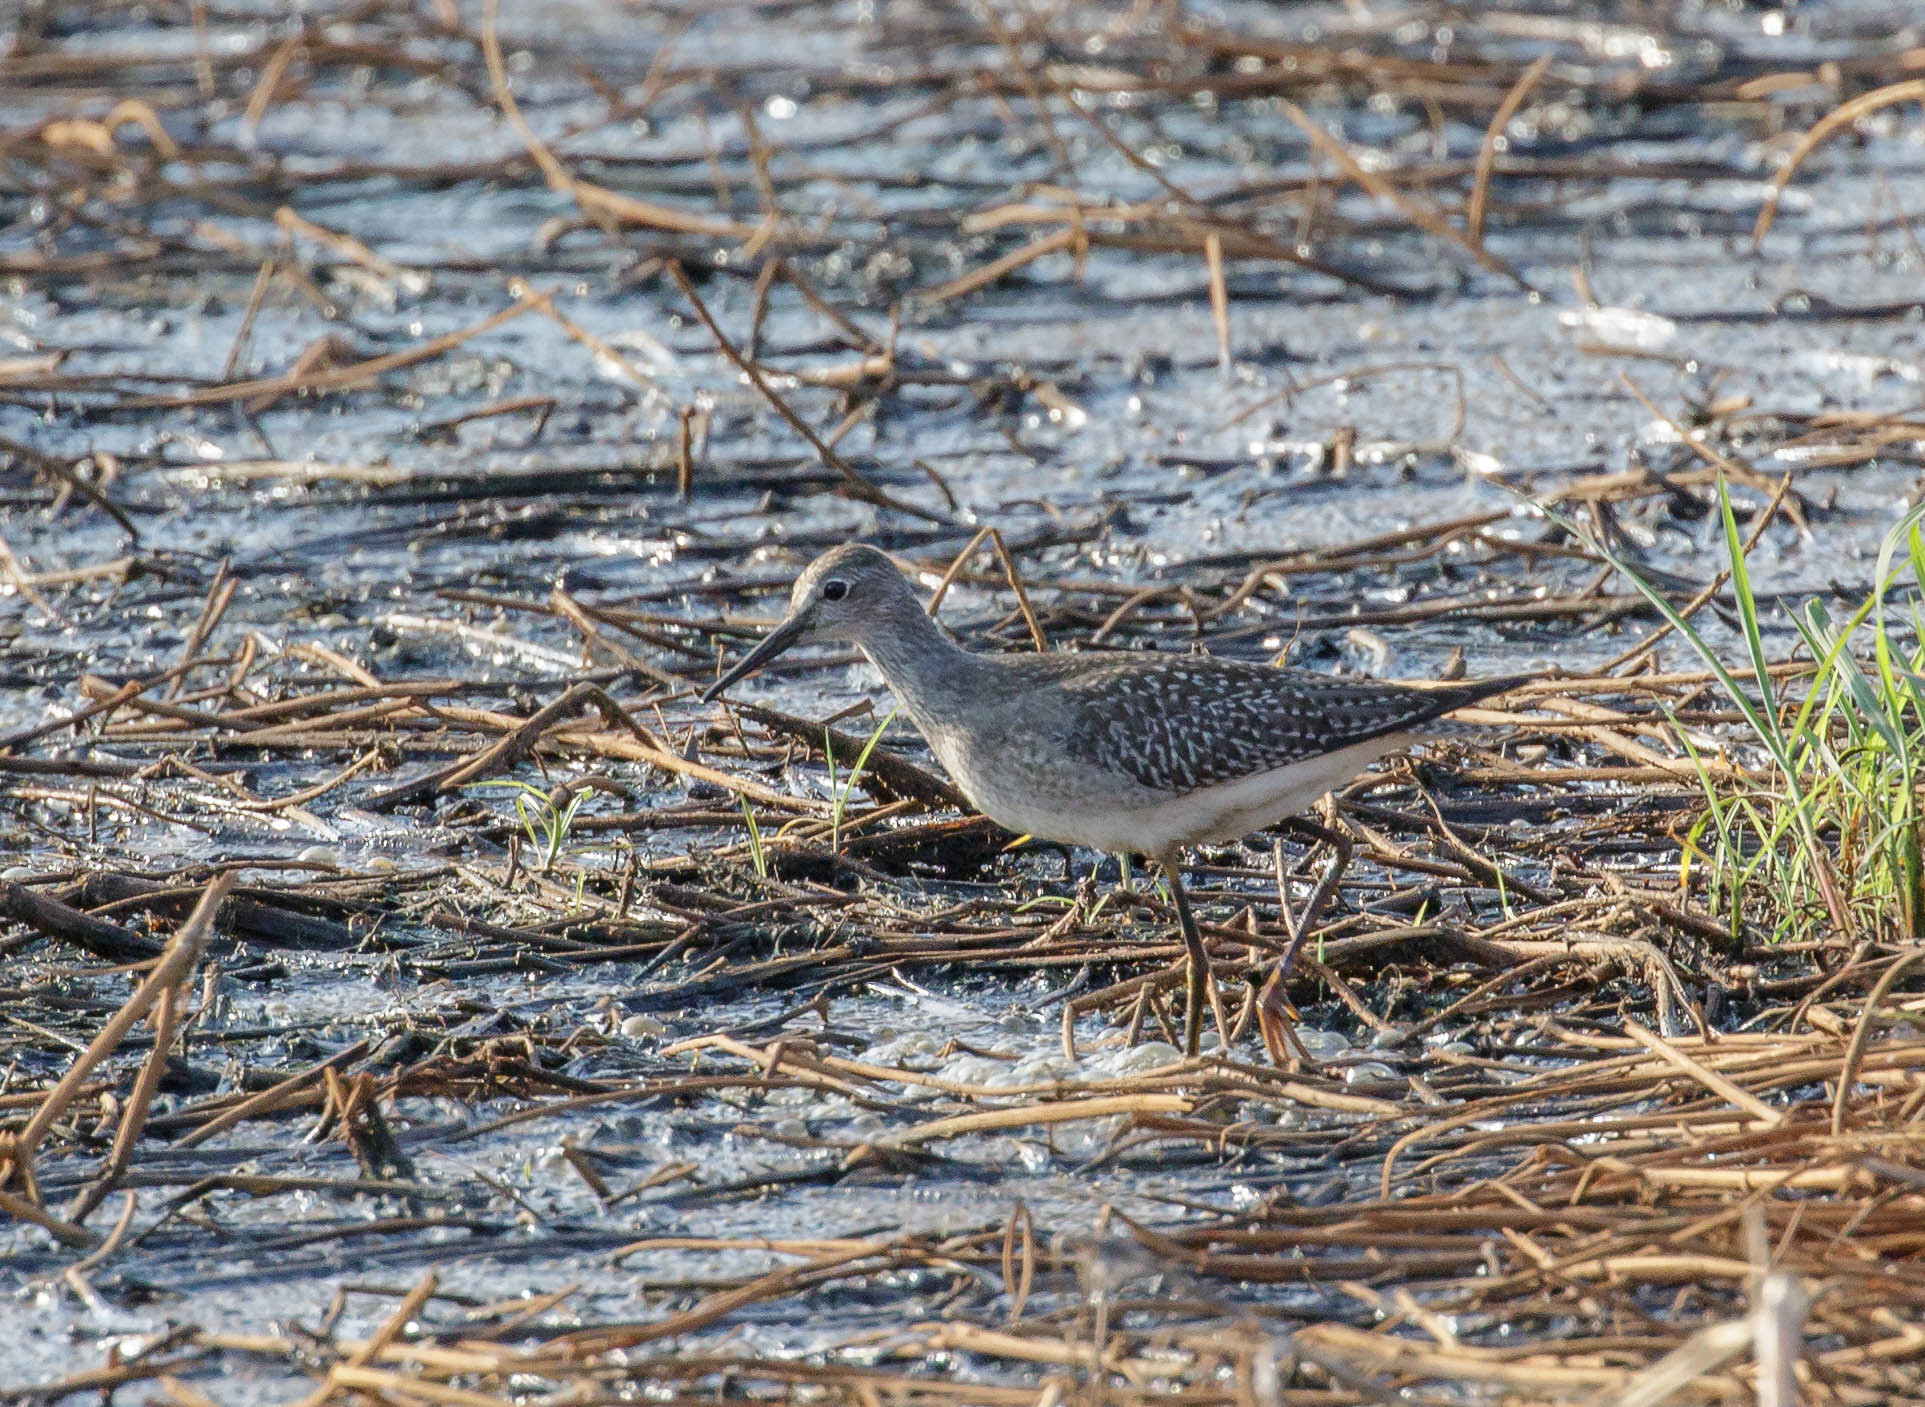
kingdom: Animalia
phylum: Chordata
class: Aves
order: Charadriiformes
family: Scolopacidae
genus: Tringa
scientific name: Tringa flavipes
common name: Lesser yellowlegs
